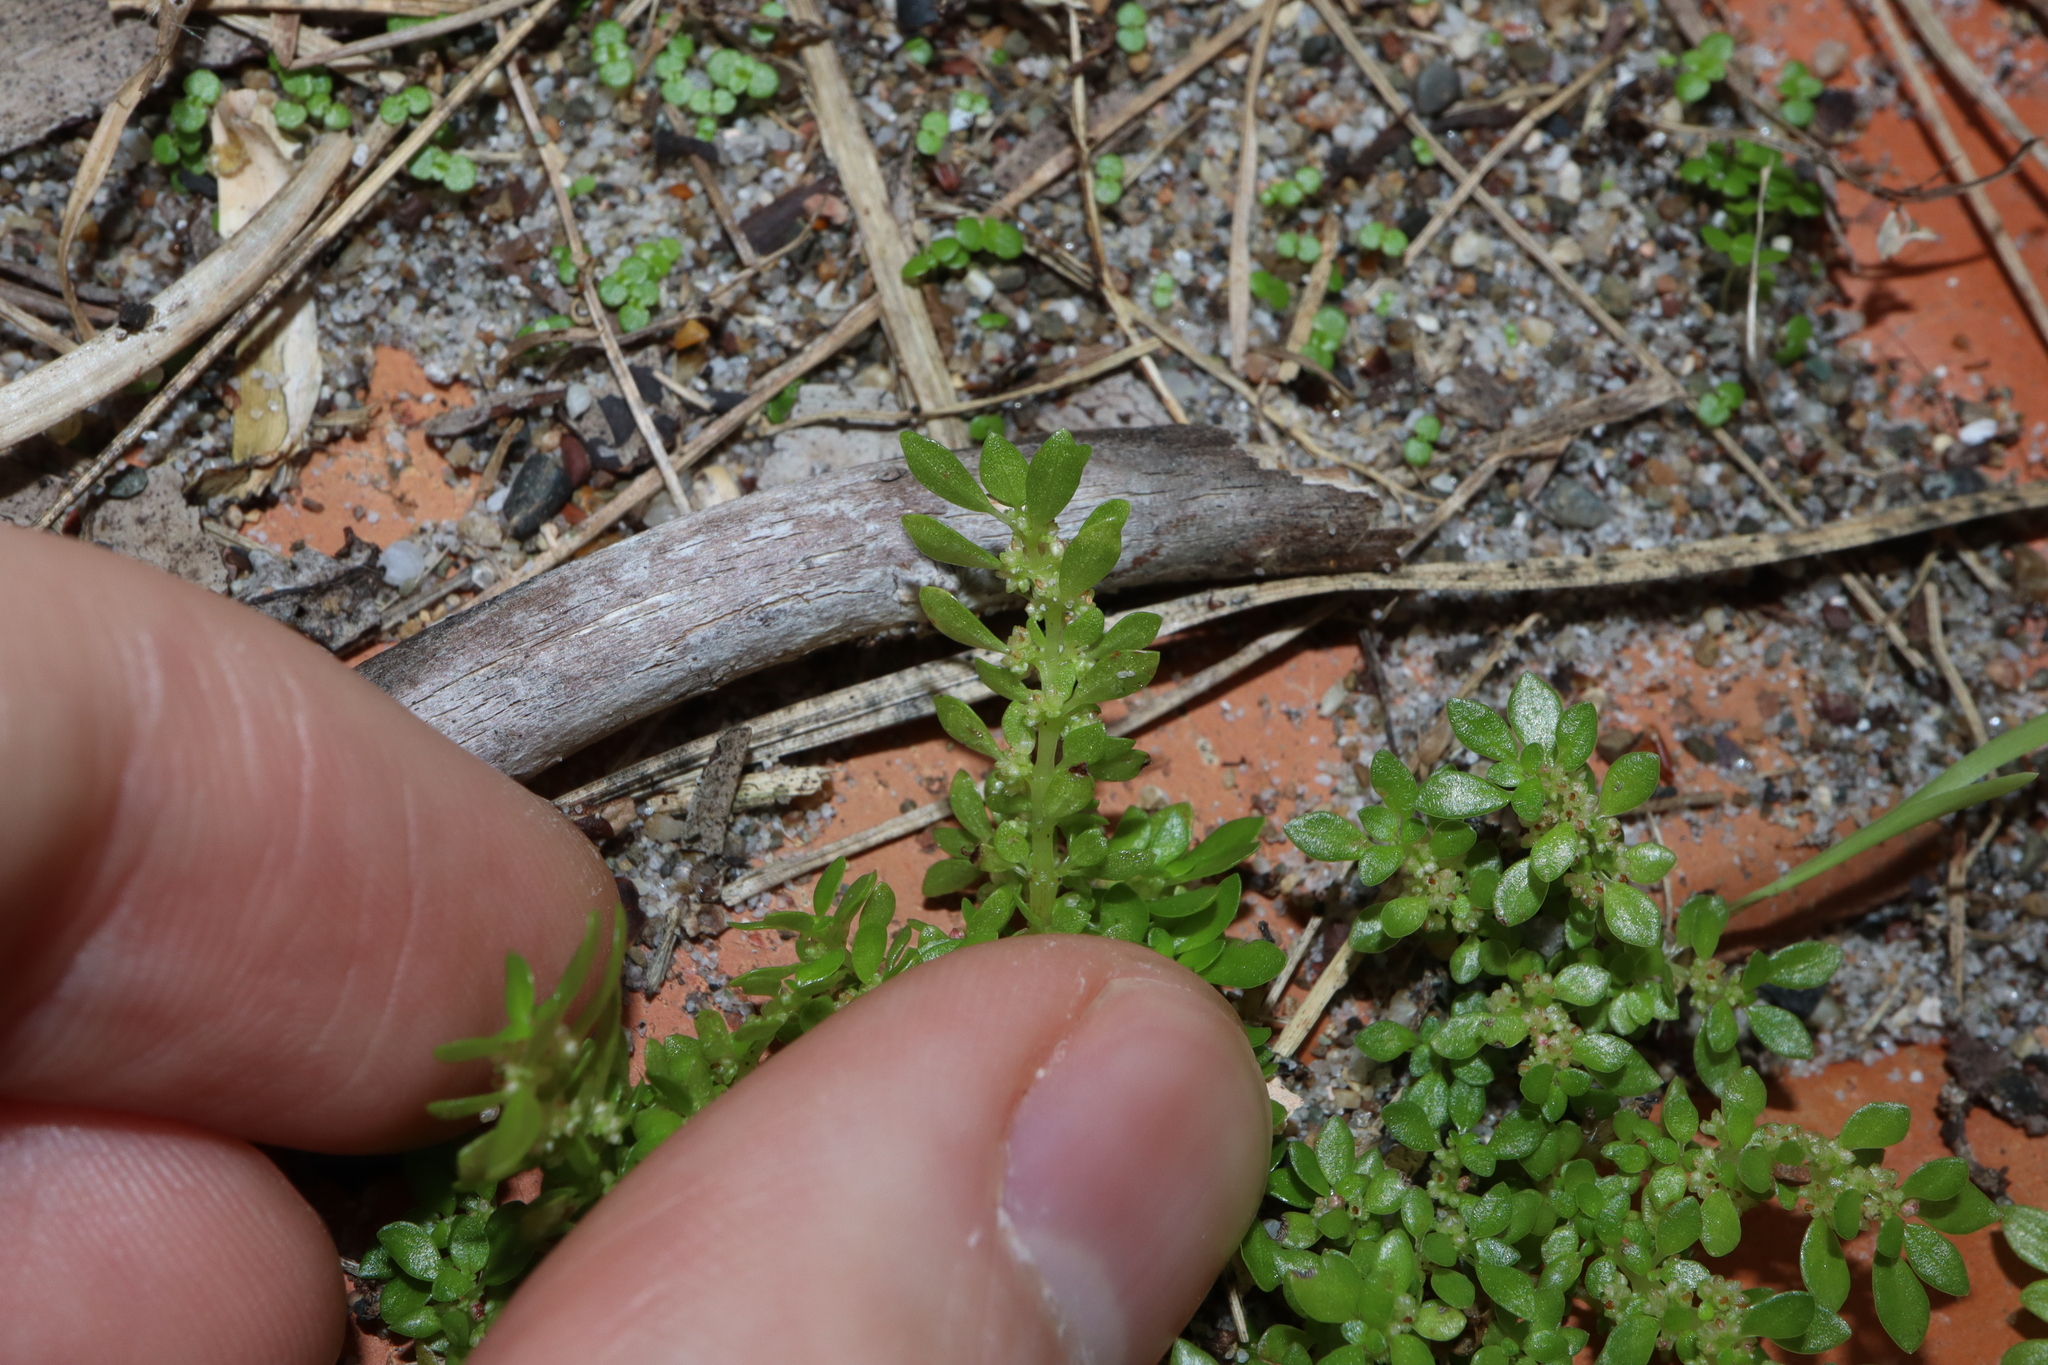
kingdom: Plantae
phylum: Tracheophyta
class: Magnoliopsida
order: Rosales
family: Urticaceae
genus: Pilea
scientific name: Pilea microphylla
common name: Artillery-plant
